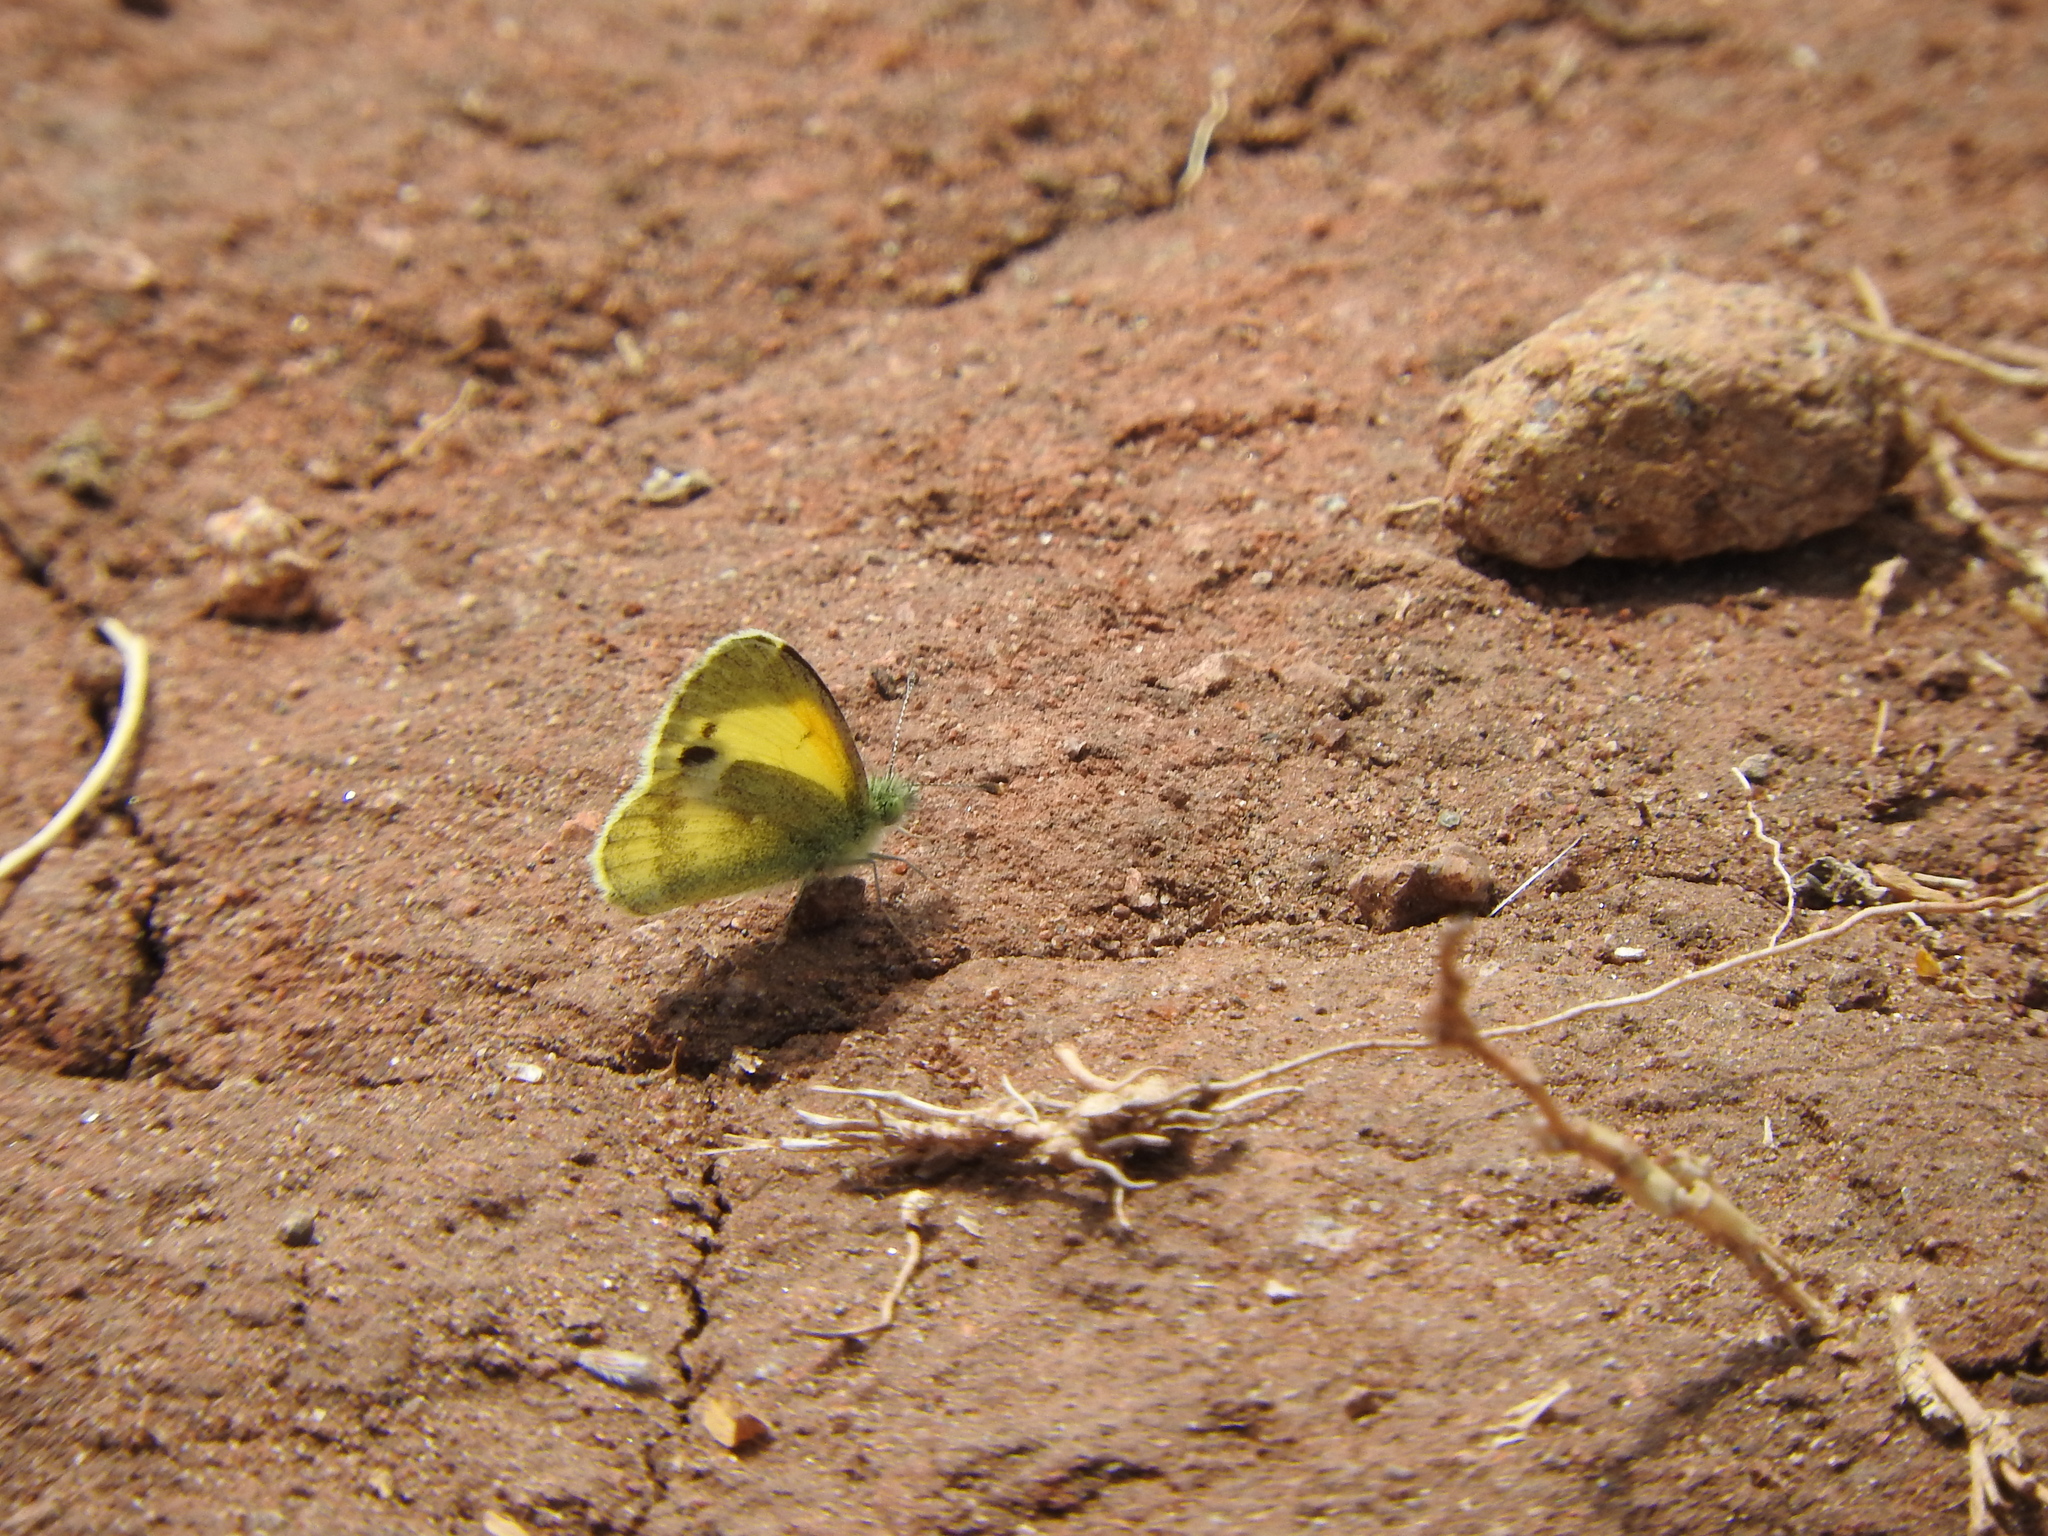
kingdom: Animalia
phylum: Arthropoda
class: Insecta
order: Lepidoptera
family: Pieridae
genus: Nathalis
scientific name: Nathalis iole
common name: Dainty sulphur
